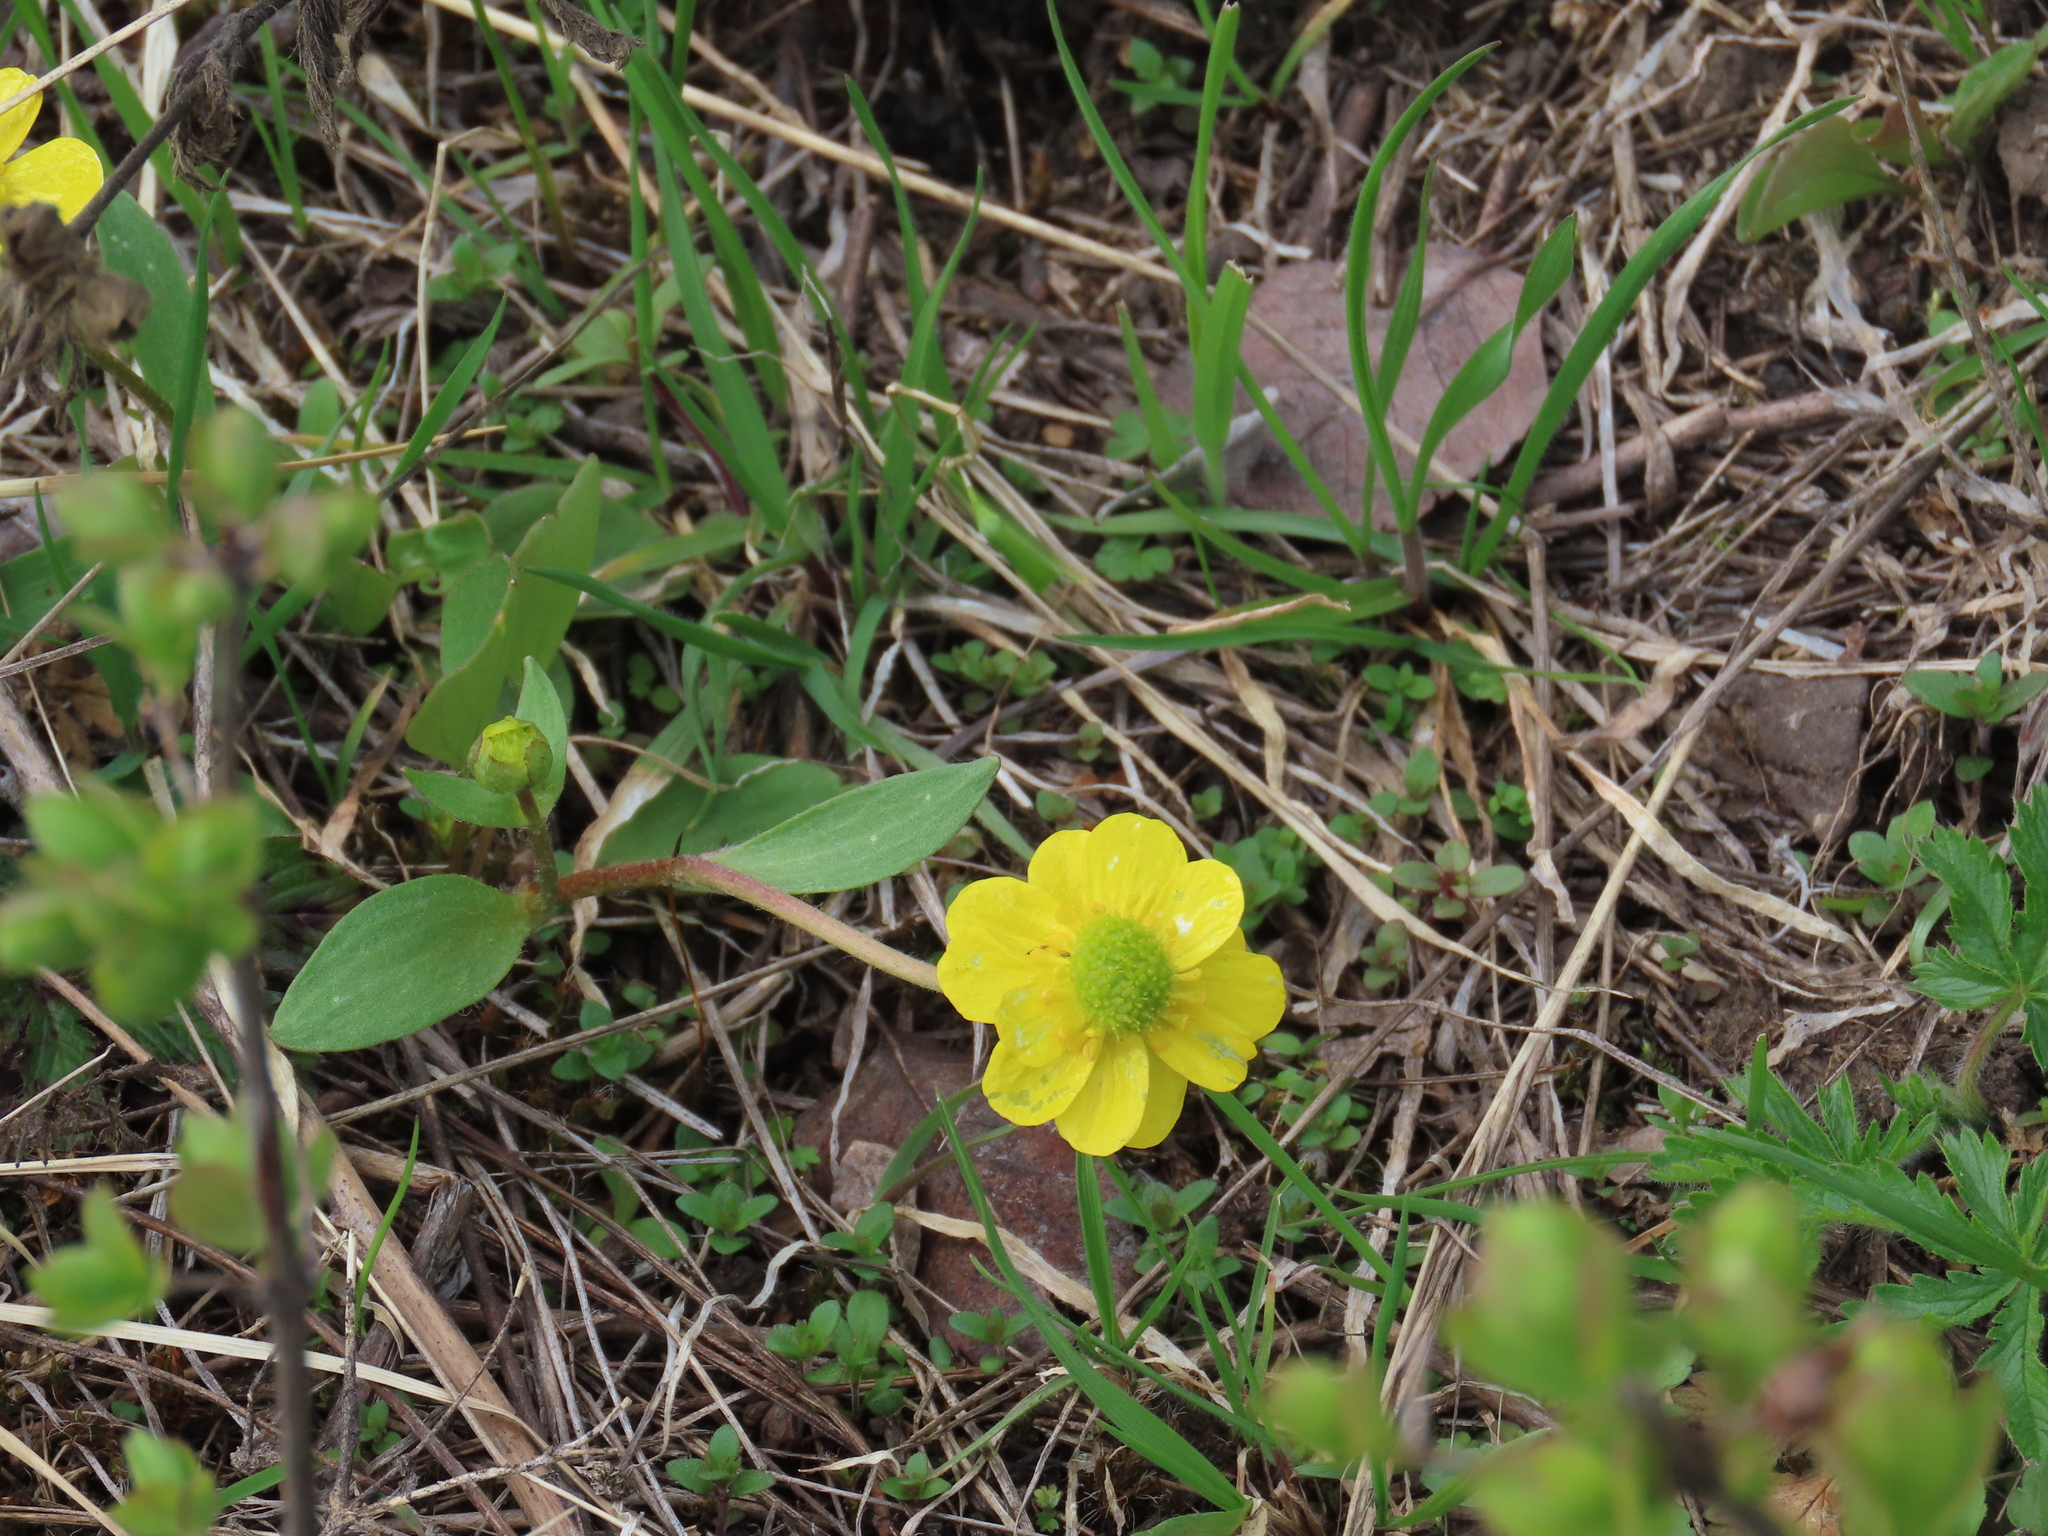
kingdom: Plantae
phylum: Tracheophyta
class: Magnoliopsida
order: Ranunculales
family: Ranunculaceae
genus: Ranunculus
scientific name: Ranunculus glaberrimus
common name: Sagebrush buttercup
